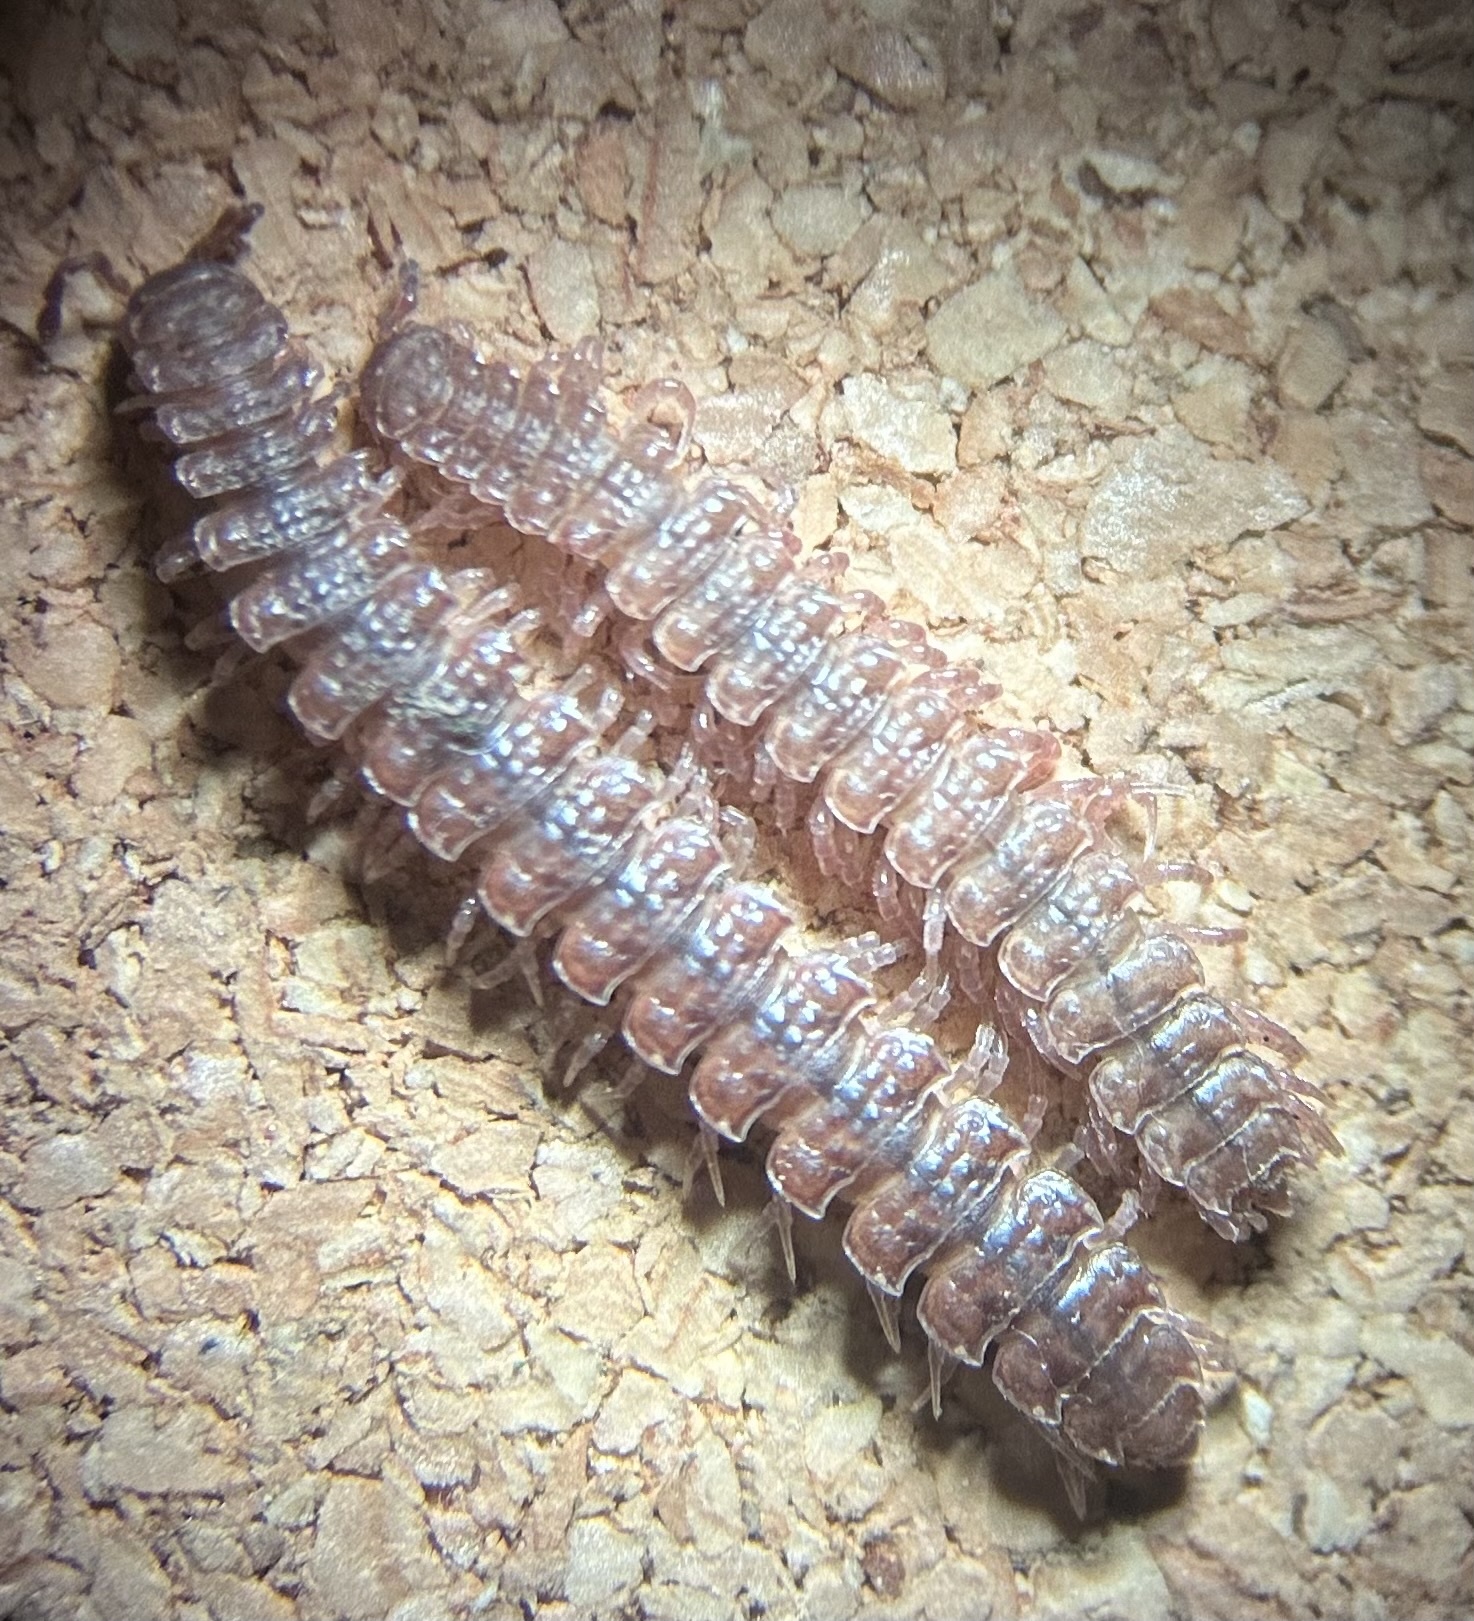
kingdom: Animalia
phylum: Arthropoda
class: Diplopoda
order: Polydesmida
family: Polydesmidae
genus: Polydesmus
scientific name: Polydesmus angustus
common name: Flat millipede
